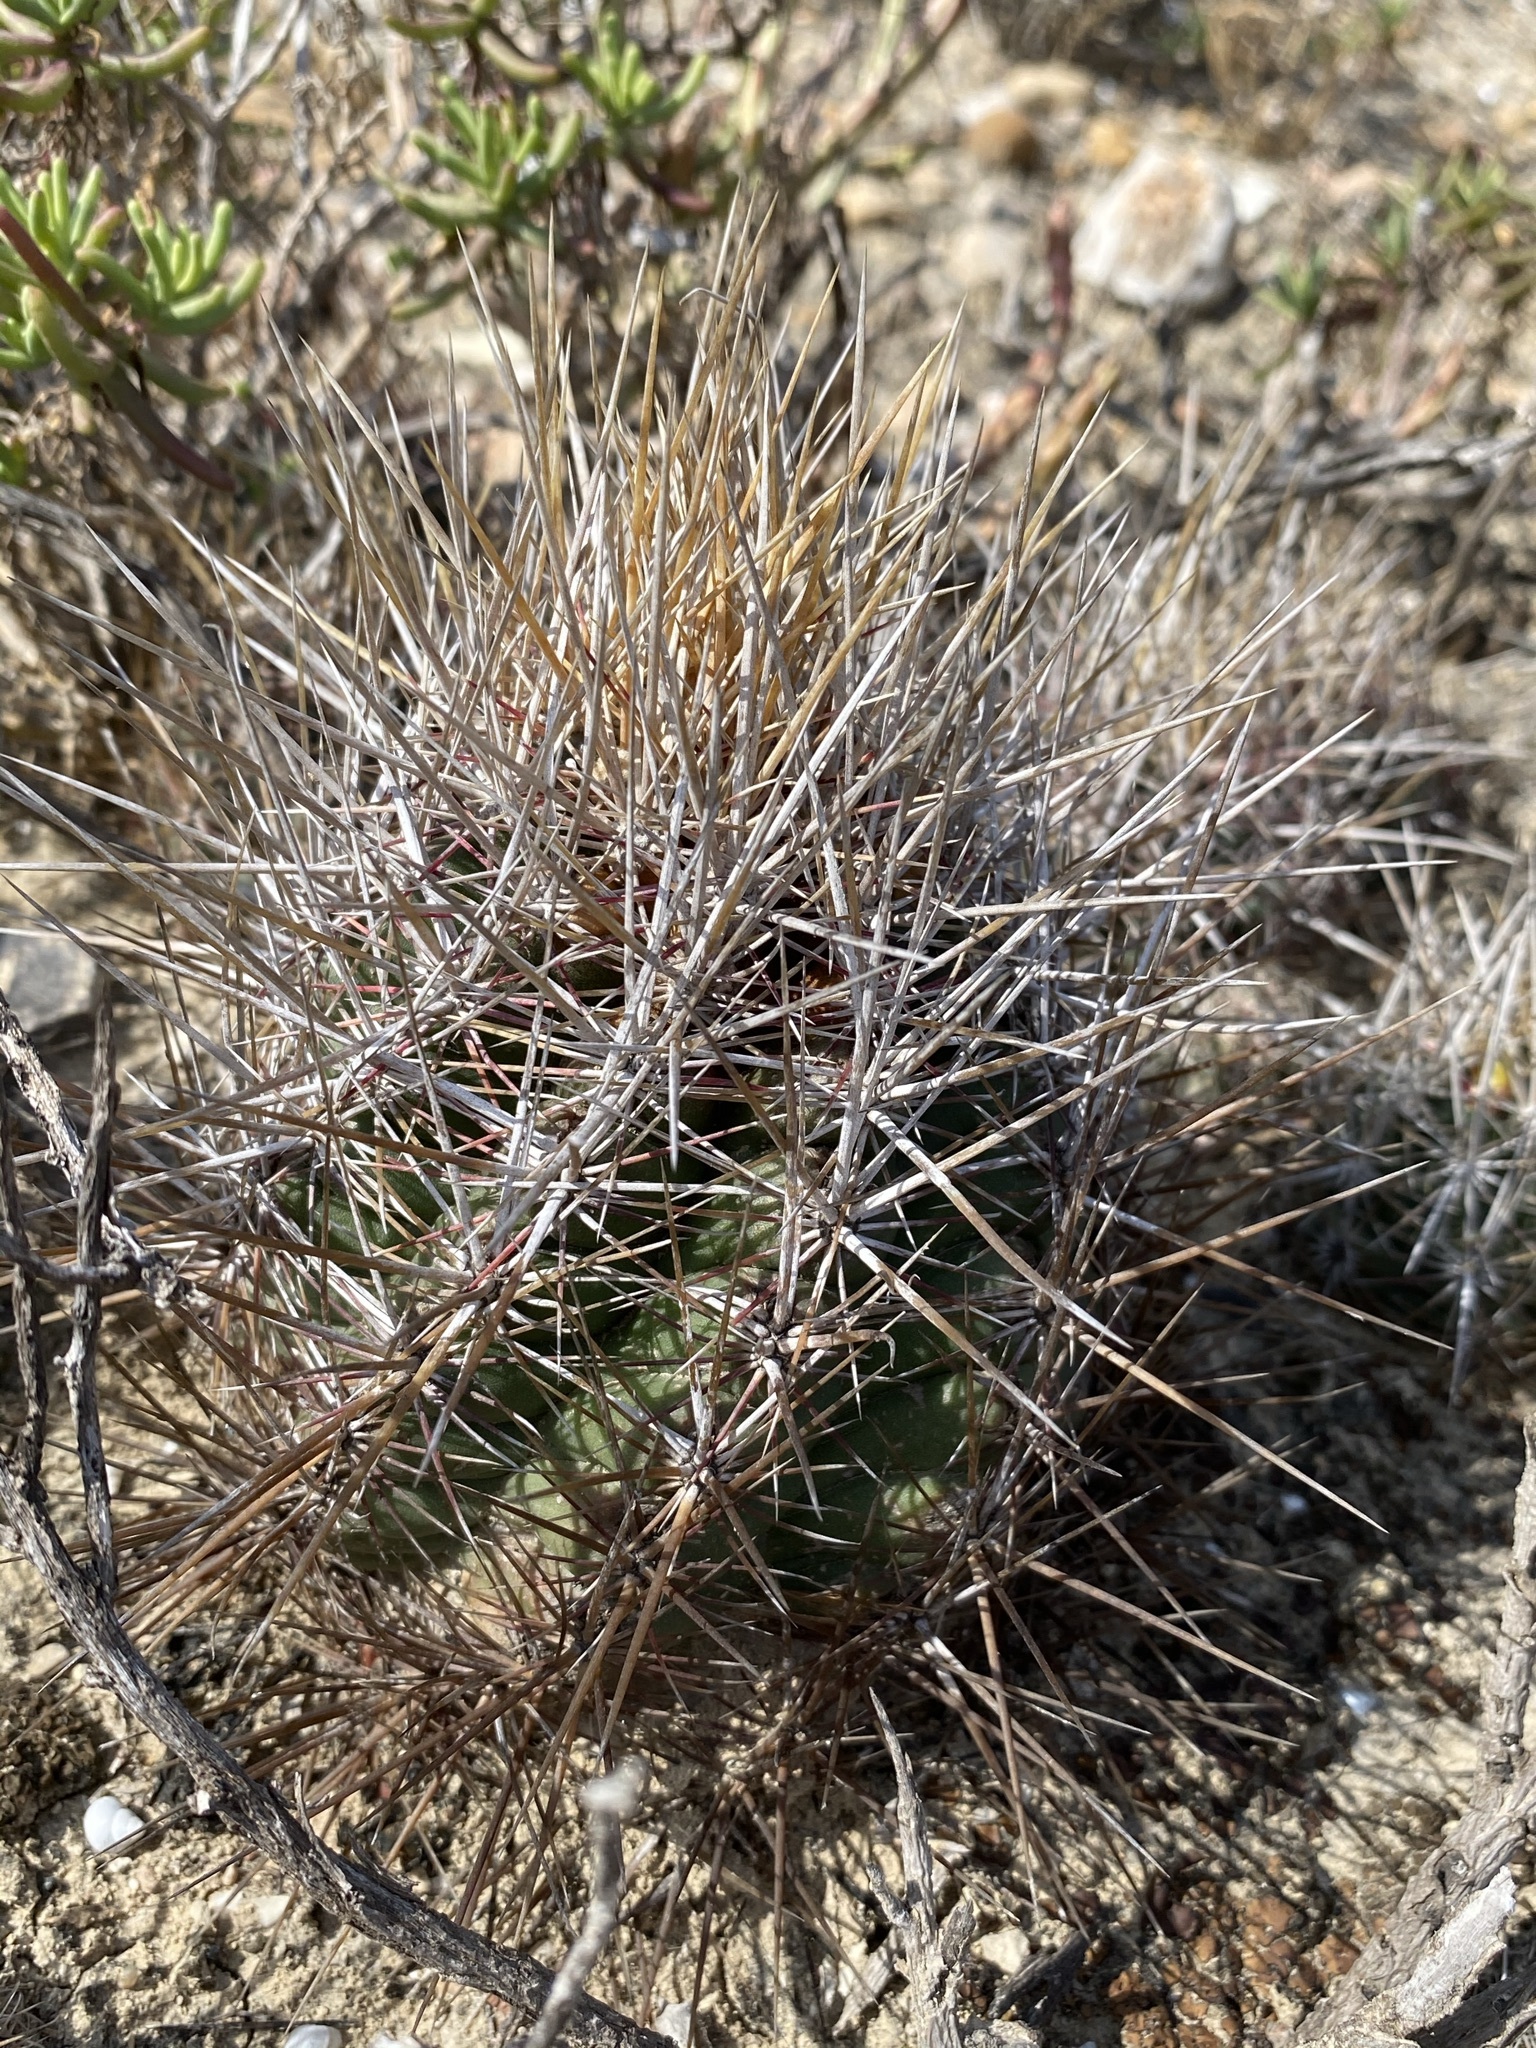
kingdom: Plantae
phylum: Tracheophyta
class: Magnoliopsida
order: Caryophyllales
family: Cactaceae
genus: Thelocactus
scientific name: Thelocactus bicolor
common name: Glory of texas
